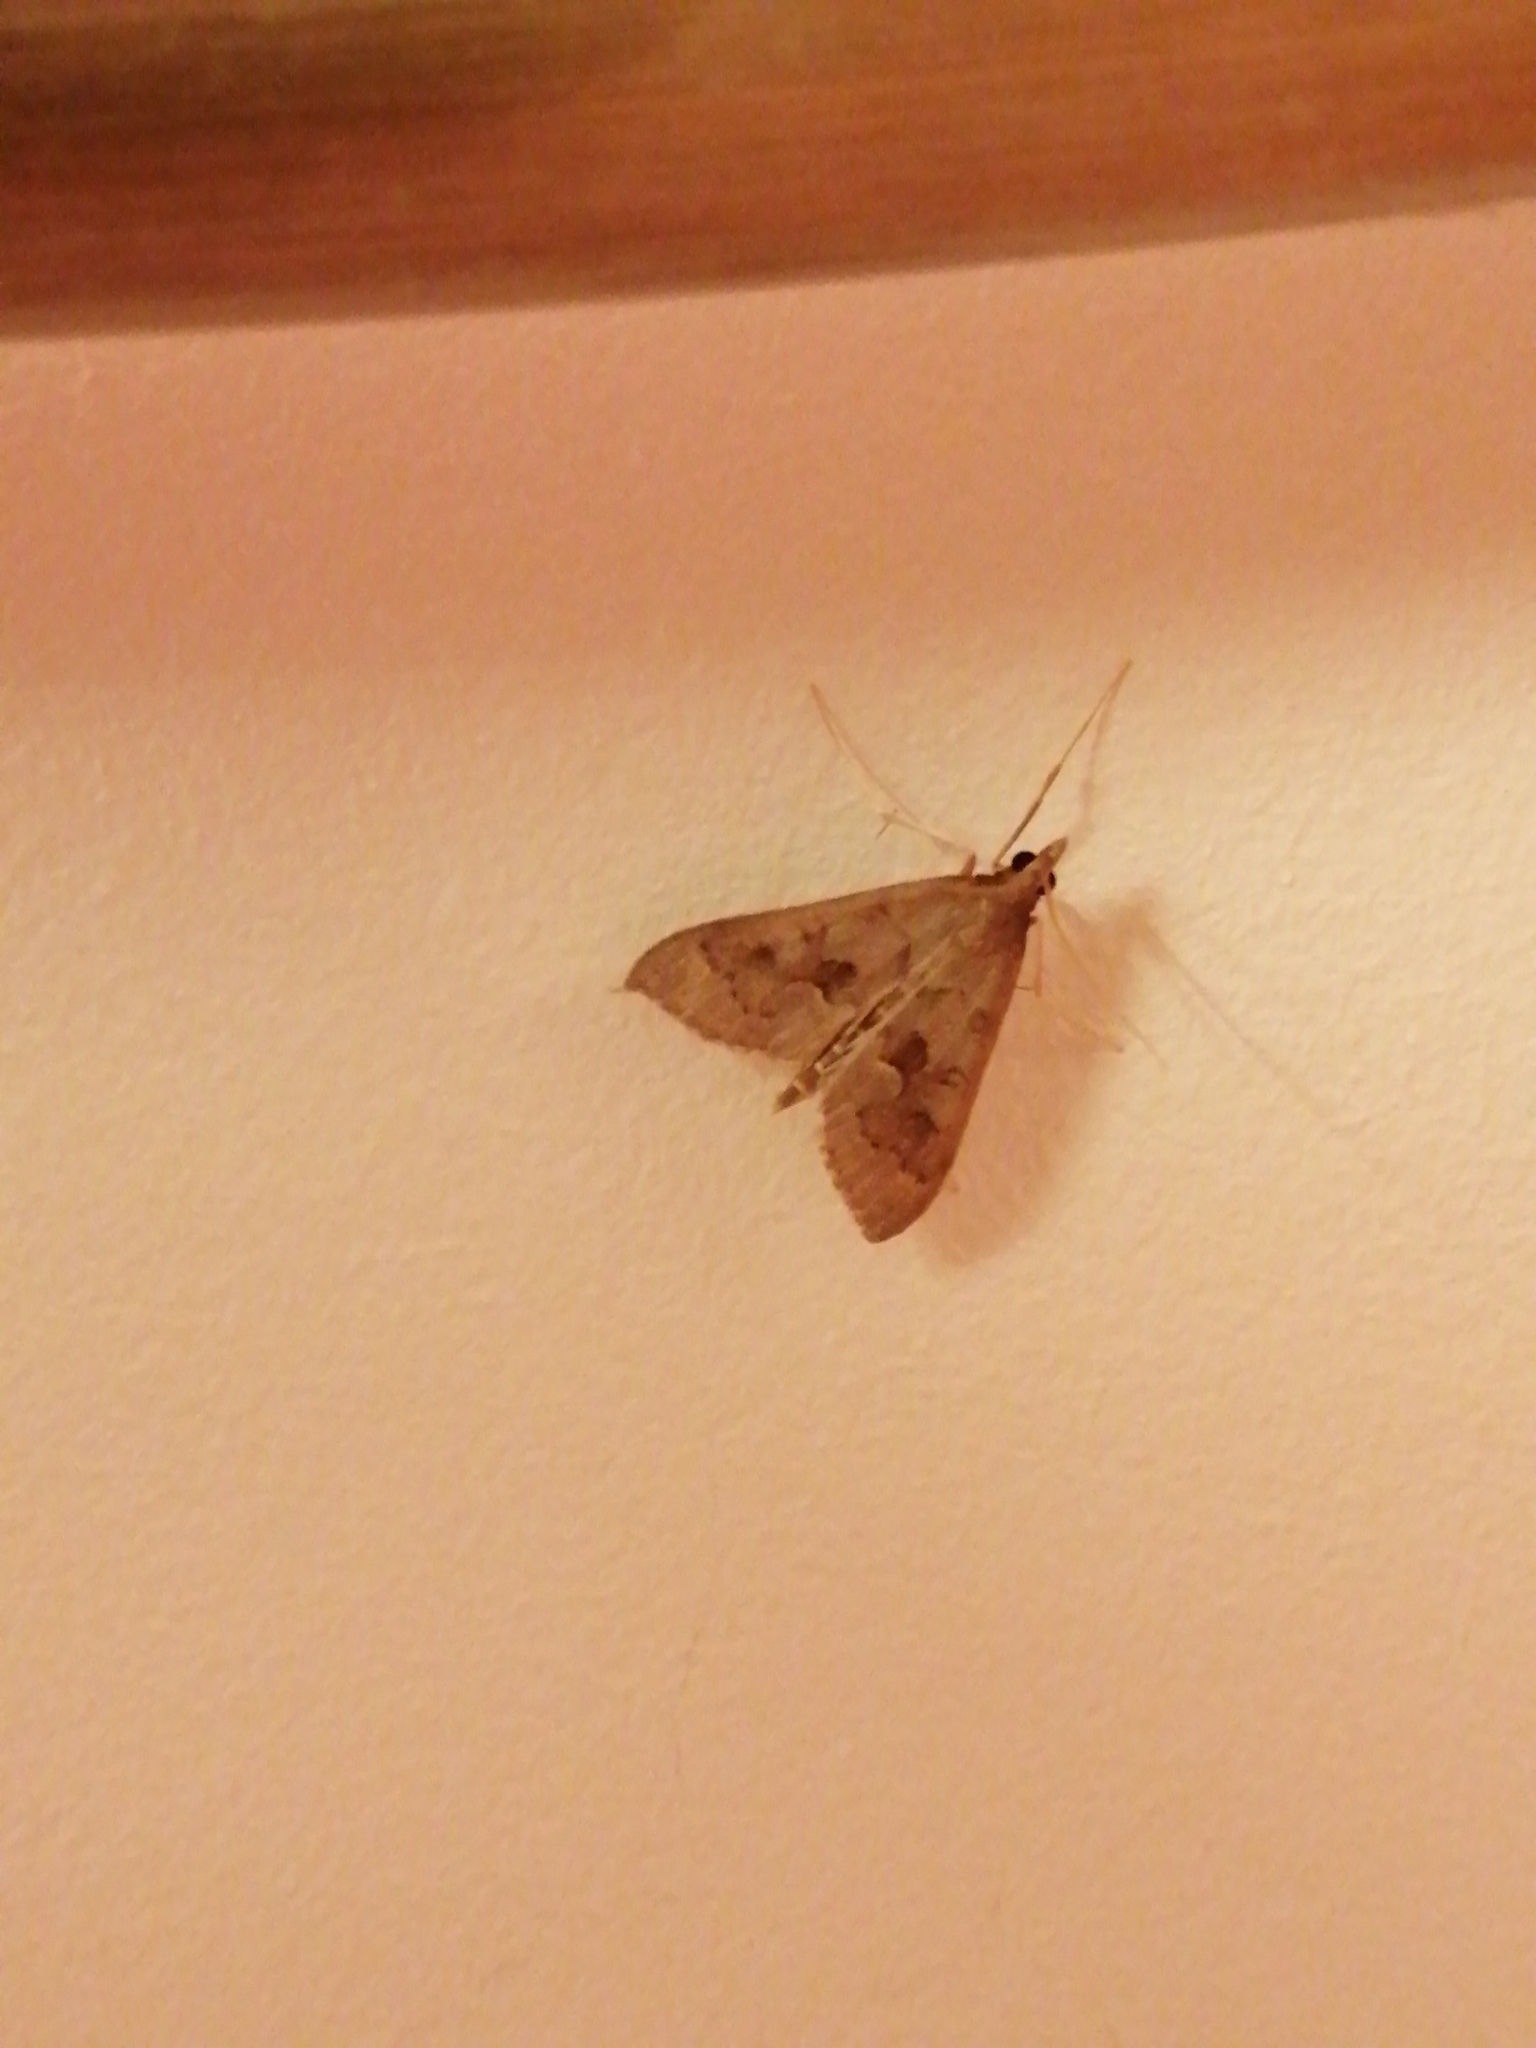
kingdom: Animalia
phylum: Arthropoda
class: Insecta
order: Lepidoptera
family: Crambidae
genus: Mecyna
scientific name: Mecyna asinalis
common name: Coastal pearl
